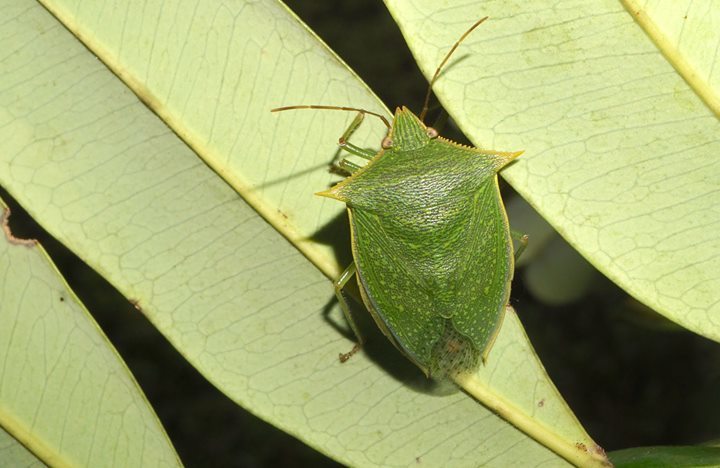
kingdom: Animalia
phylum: Arthropoda
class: Insecta
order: Hemiptera
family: Pentatomidae
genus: Loxa
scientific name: Loxa viridis
